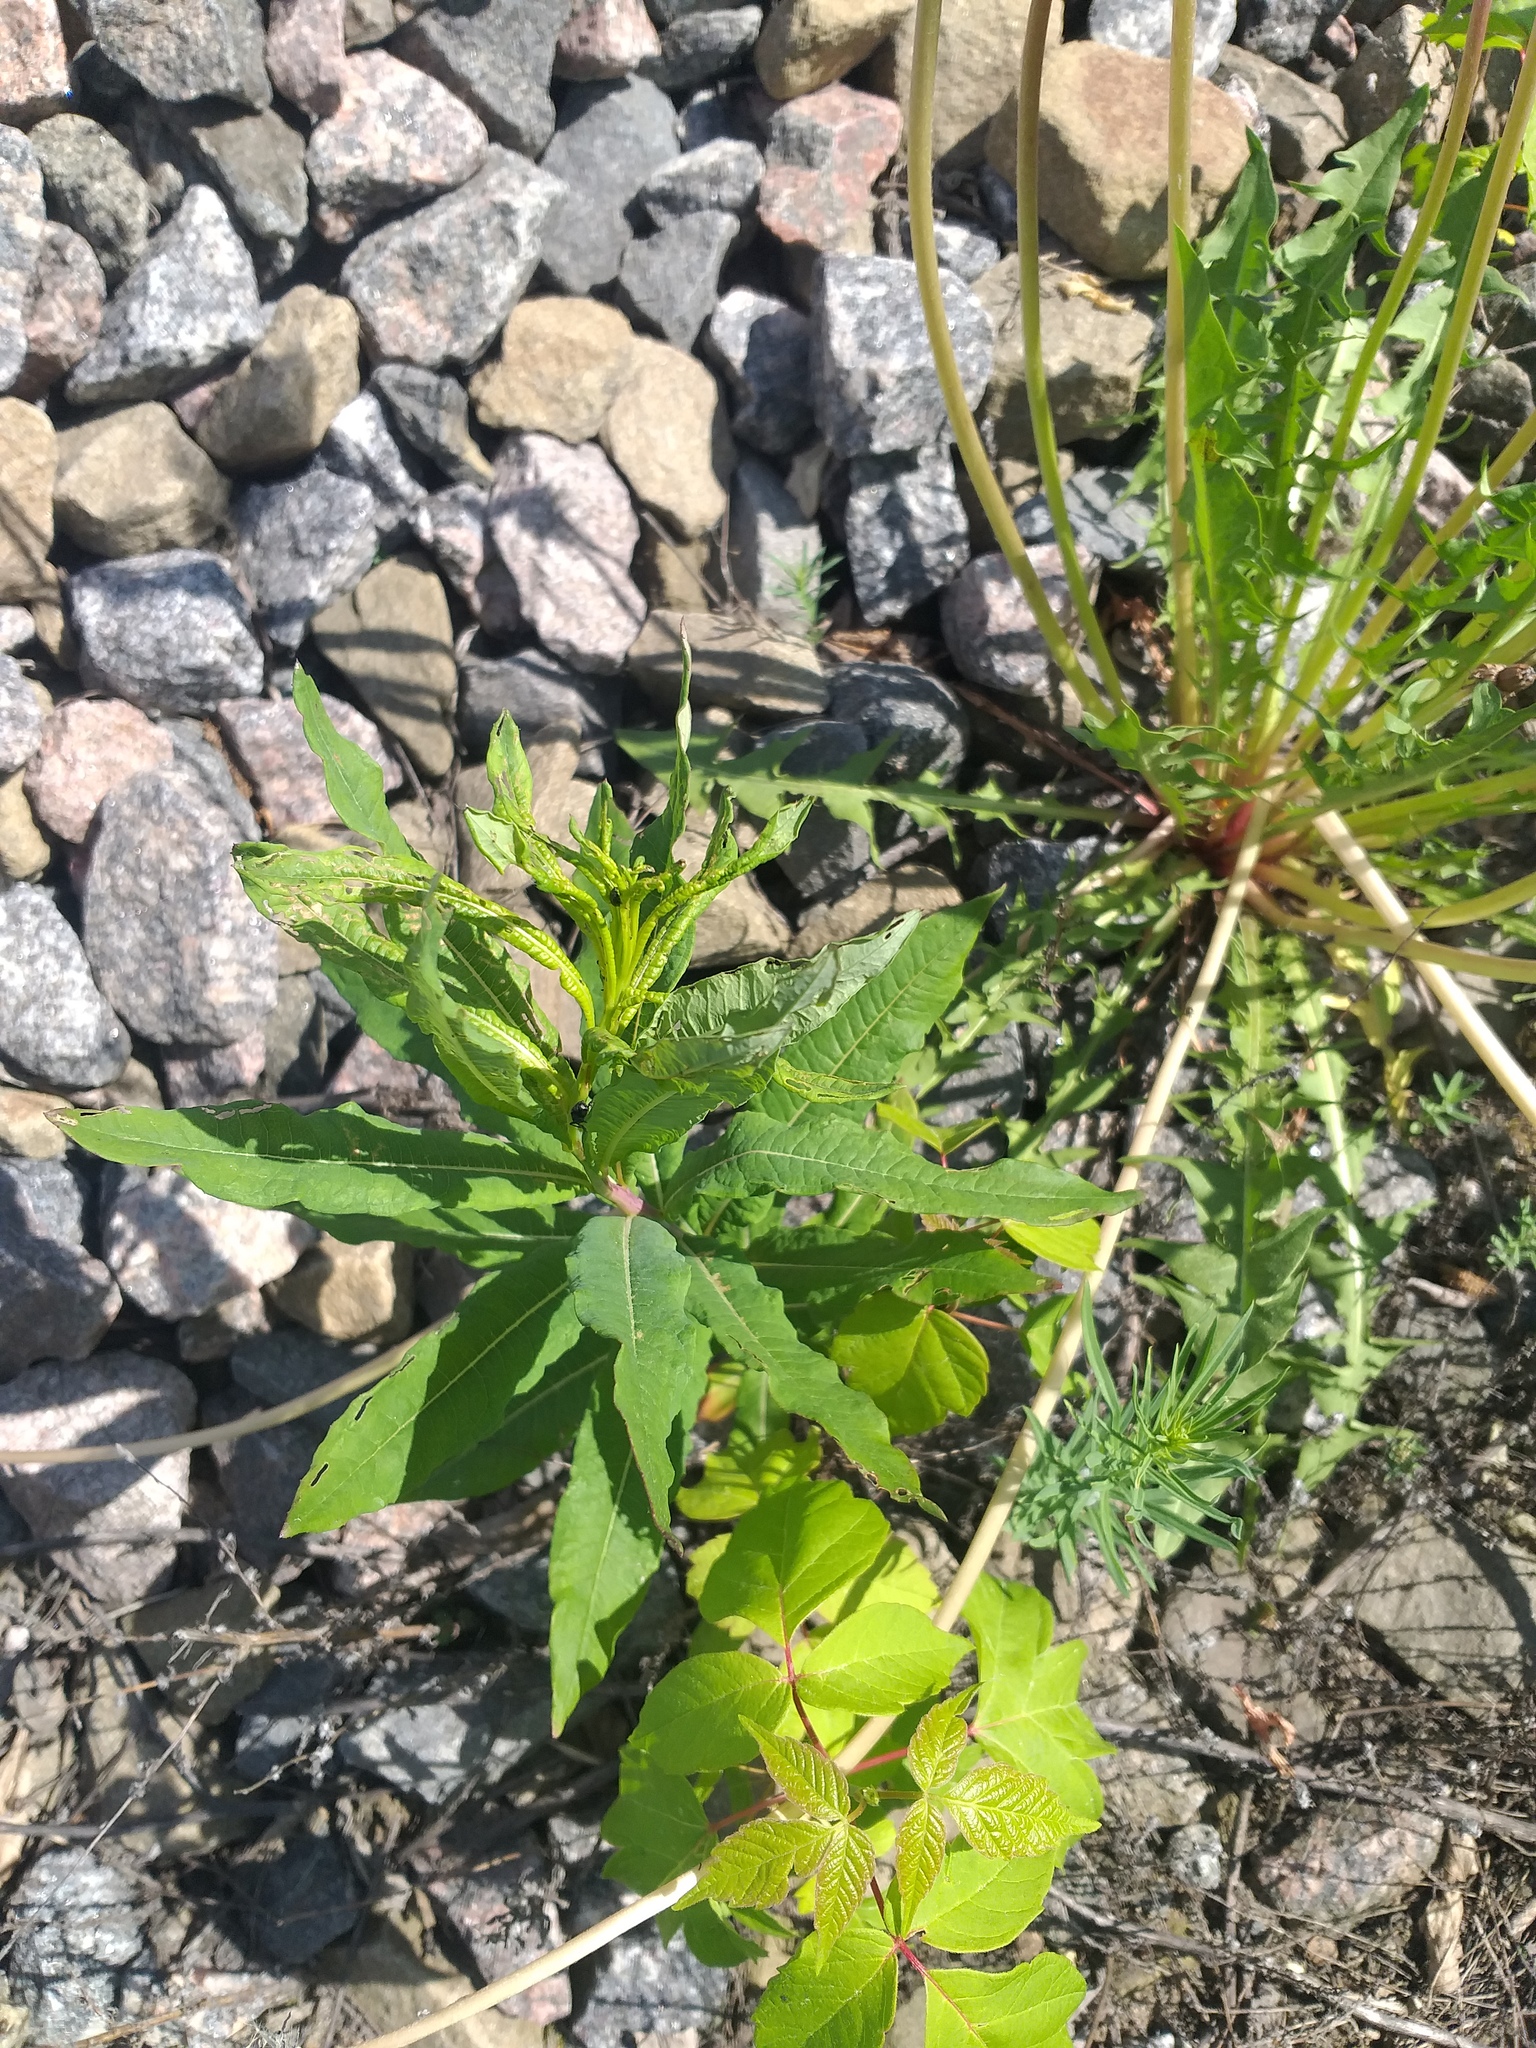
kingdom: Plantae
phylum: Tracheophyta
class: Magnoliopsida
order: Myrtales
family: Onagraceae
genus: Chamaenerion
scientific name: Chamaenerion angustifolium
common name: Fireweed
